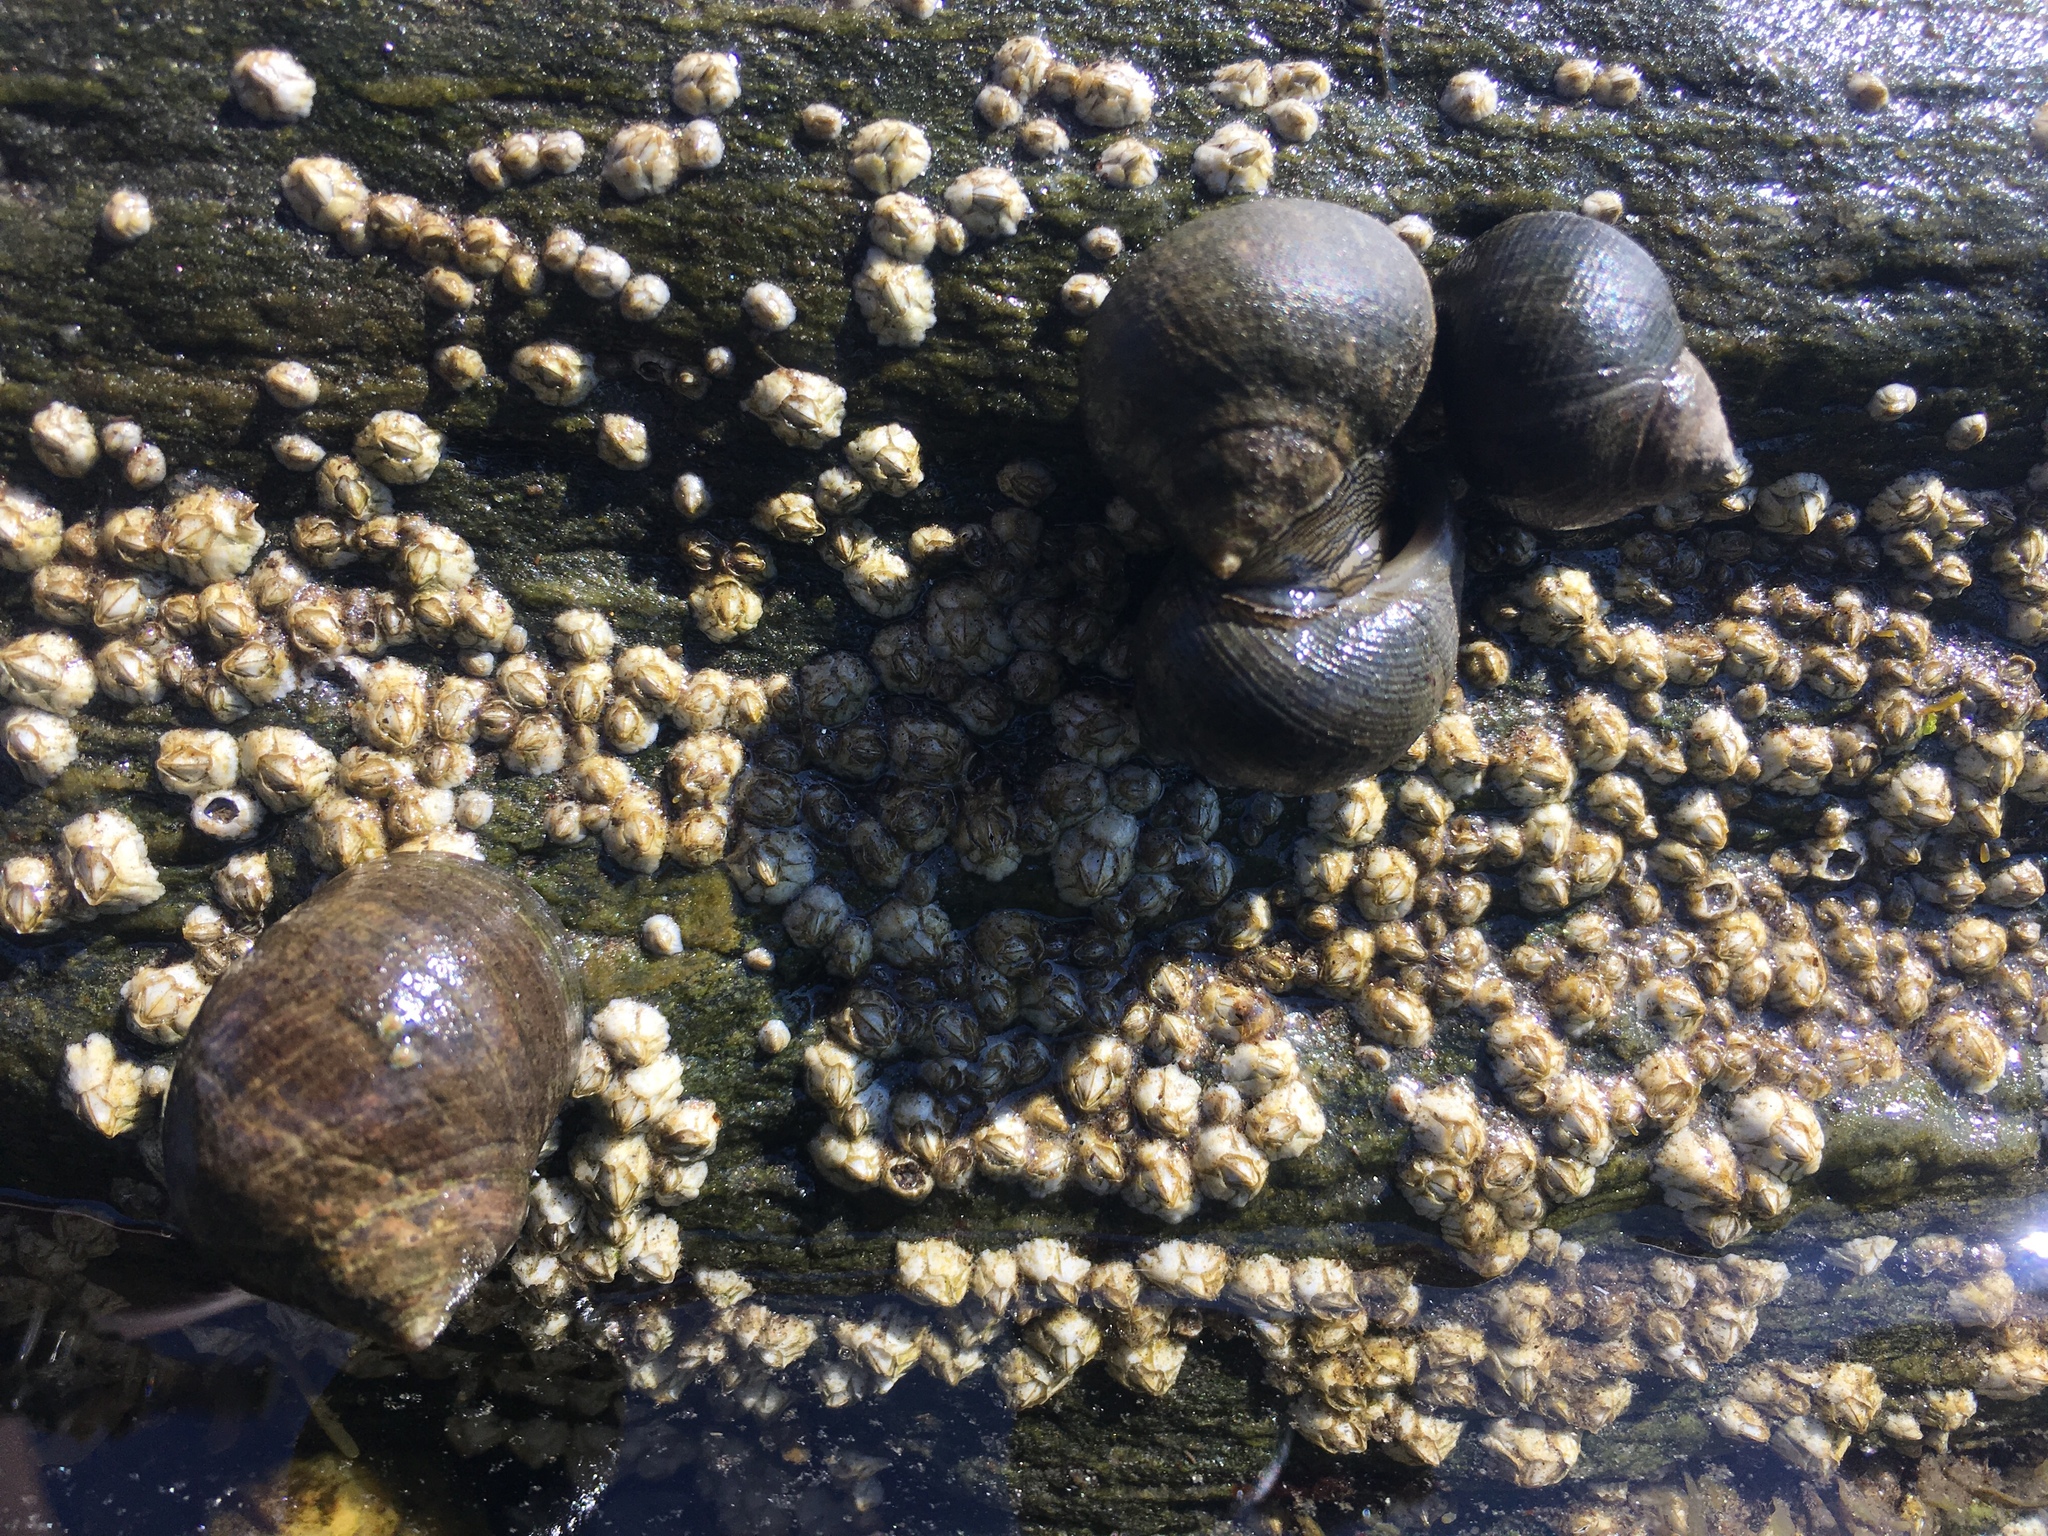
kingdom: Animalia
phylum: Mollusca
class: Gastropoda
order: Littorinimorpha
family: Littorinidae
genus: Littorina
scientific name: Littorina littorea
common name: Common periwinkle
